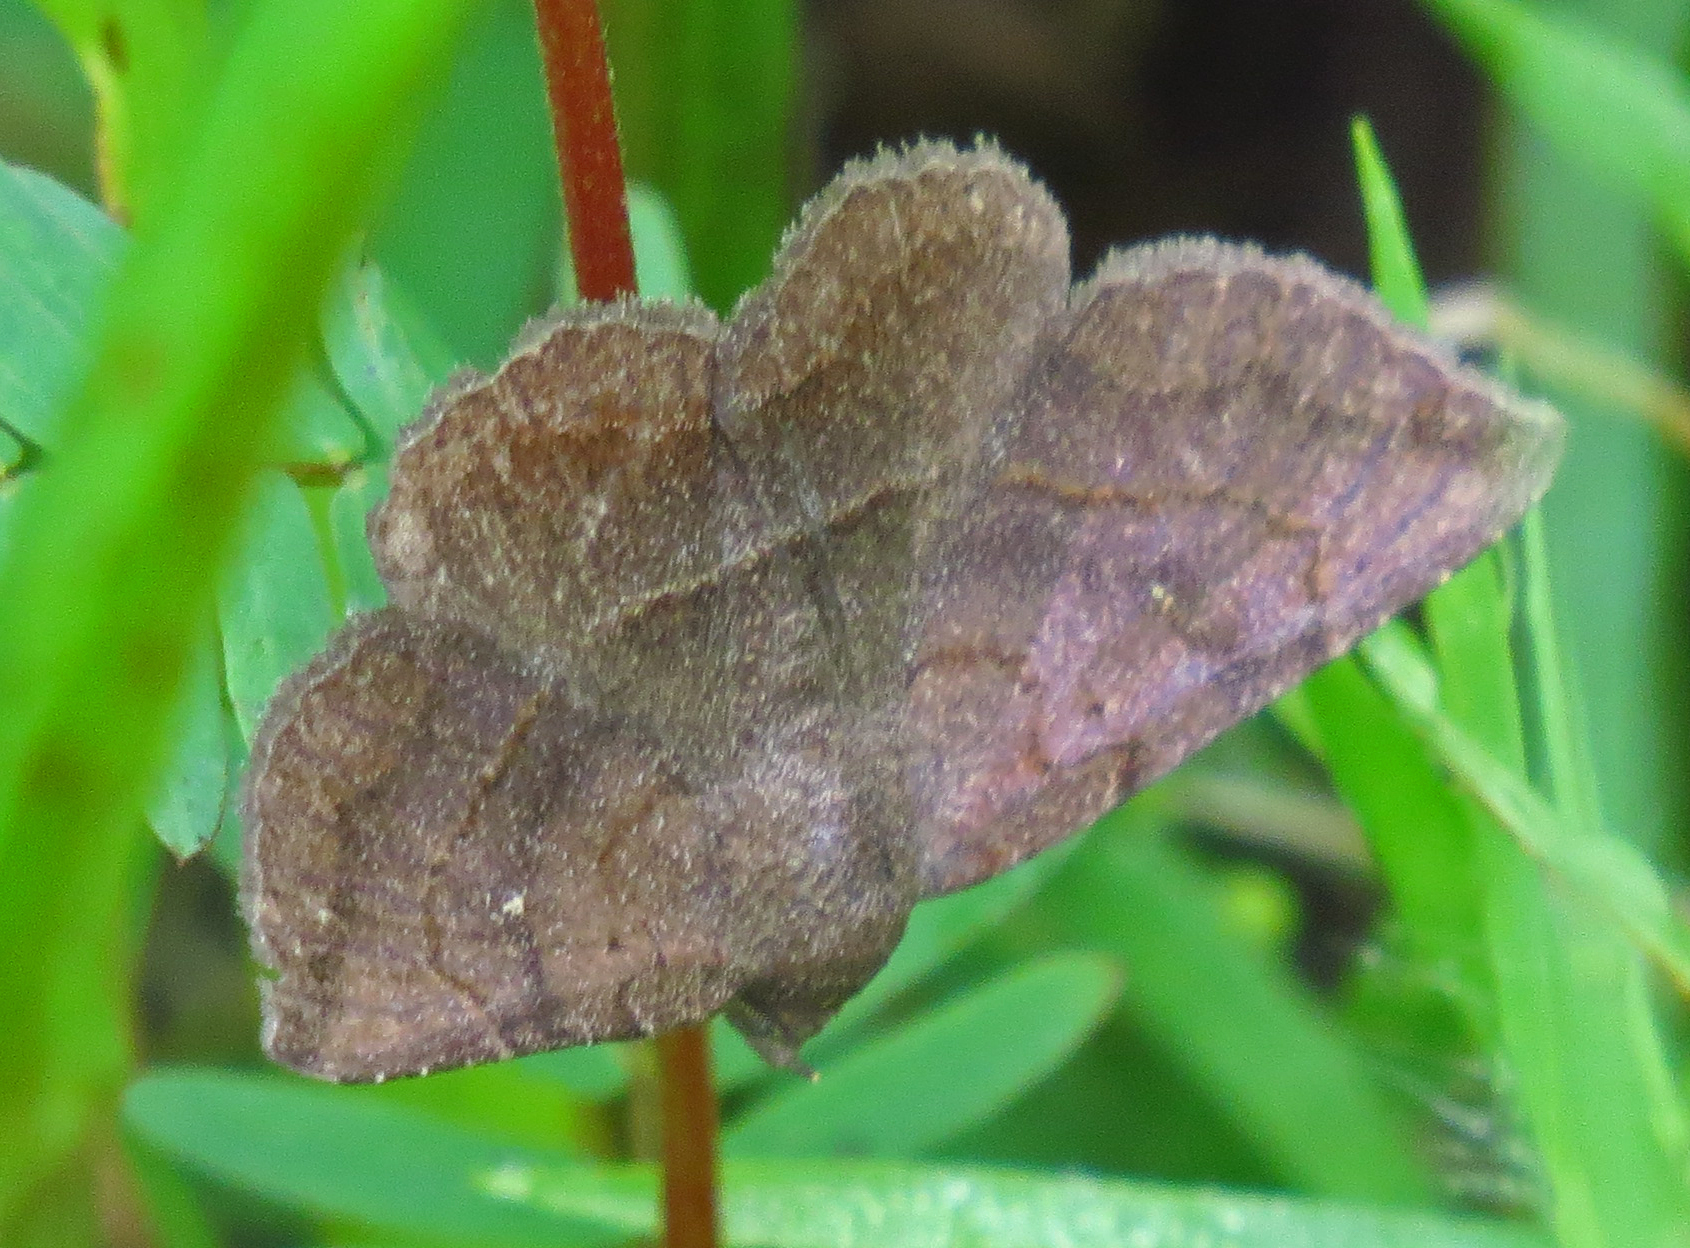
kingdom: Animalia
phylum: Arthropoda
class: Insecta
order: Lepidoptera
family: Erebidae
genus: Lesmone
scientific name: Lesmone detrahens
